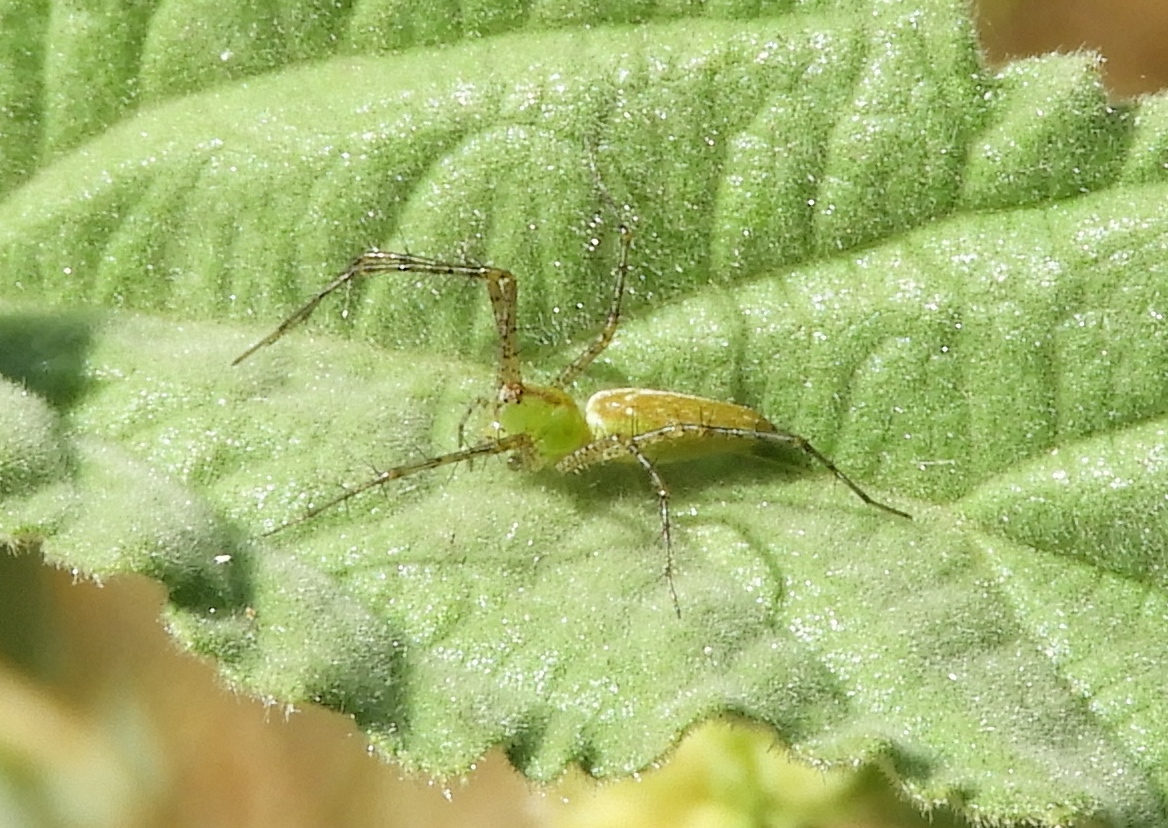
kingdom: Animalia
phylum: Arthropoda
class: Arachnida
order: Araneae
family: Oxyopidae
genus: Peucetia
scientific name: Peucetia
